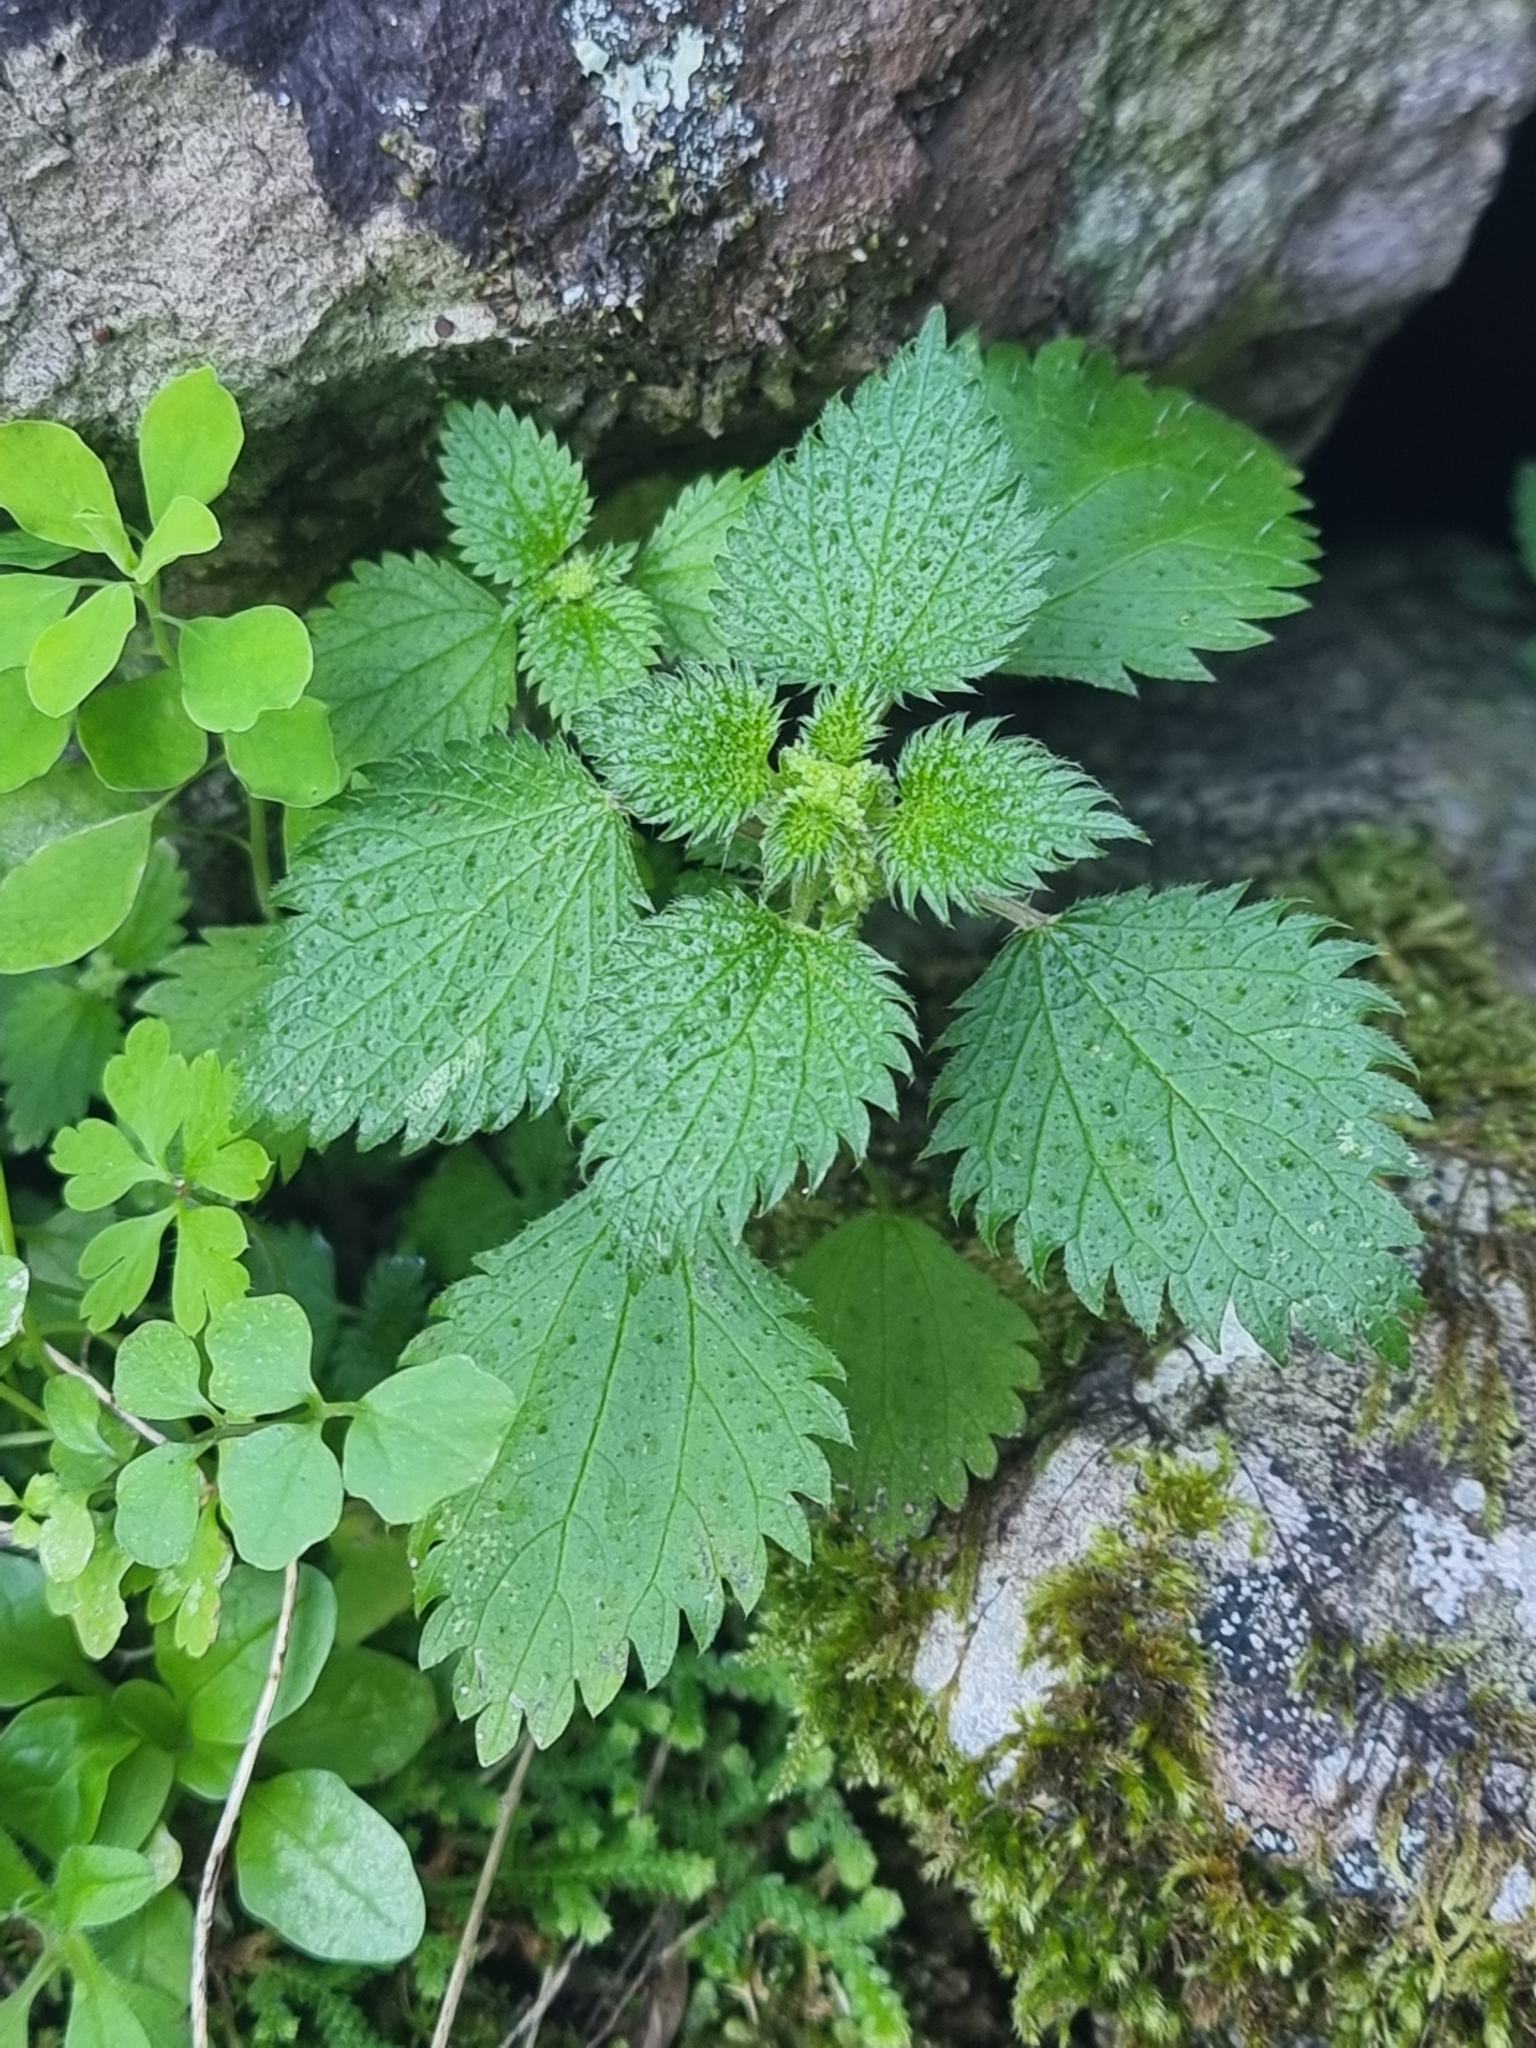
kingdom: Plantae
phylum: Tracheophyta
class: Magnoliopsida
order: Rosales
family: Urticaceae
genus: Urtica
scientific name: Urtica membranacea
